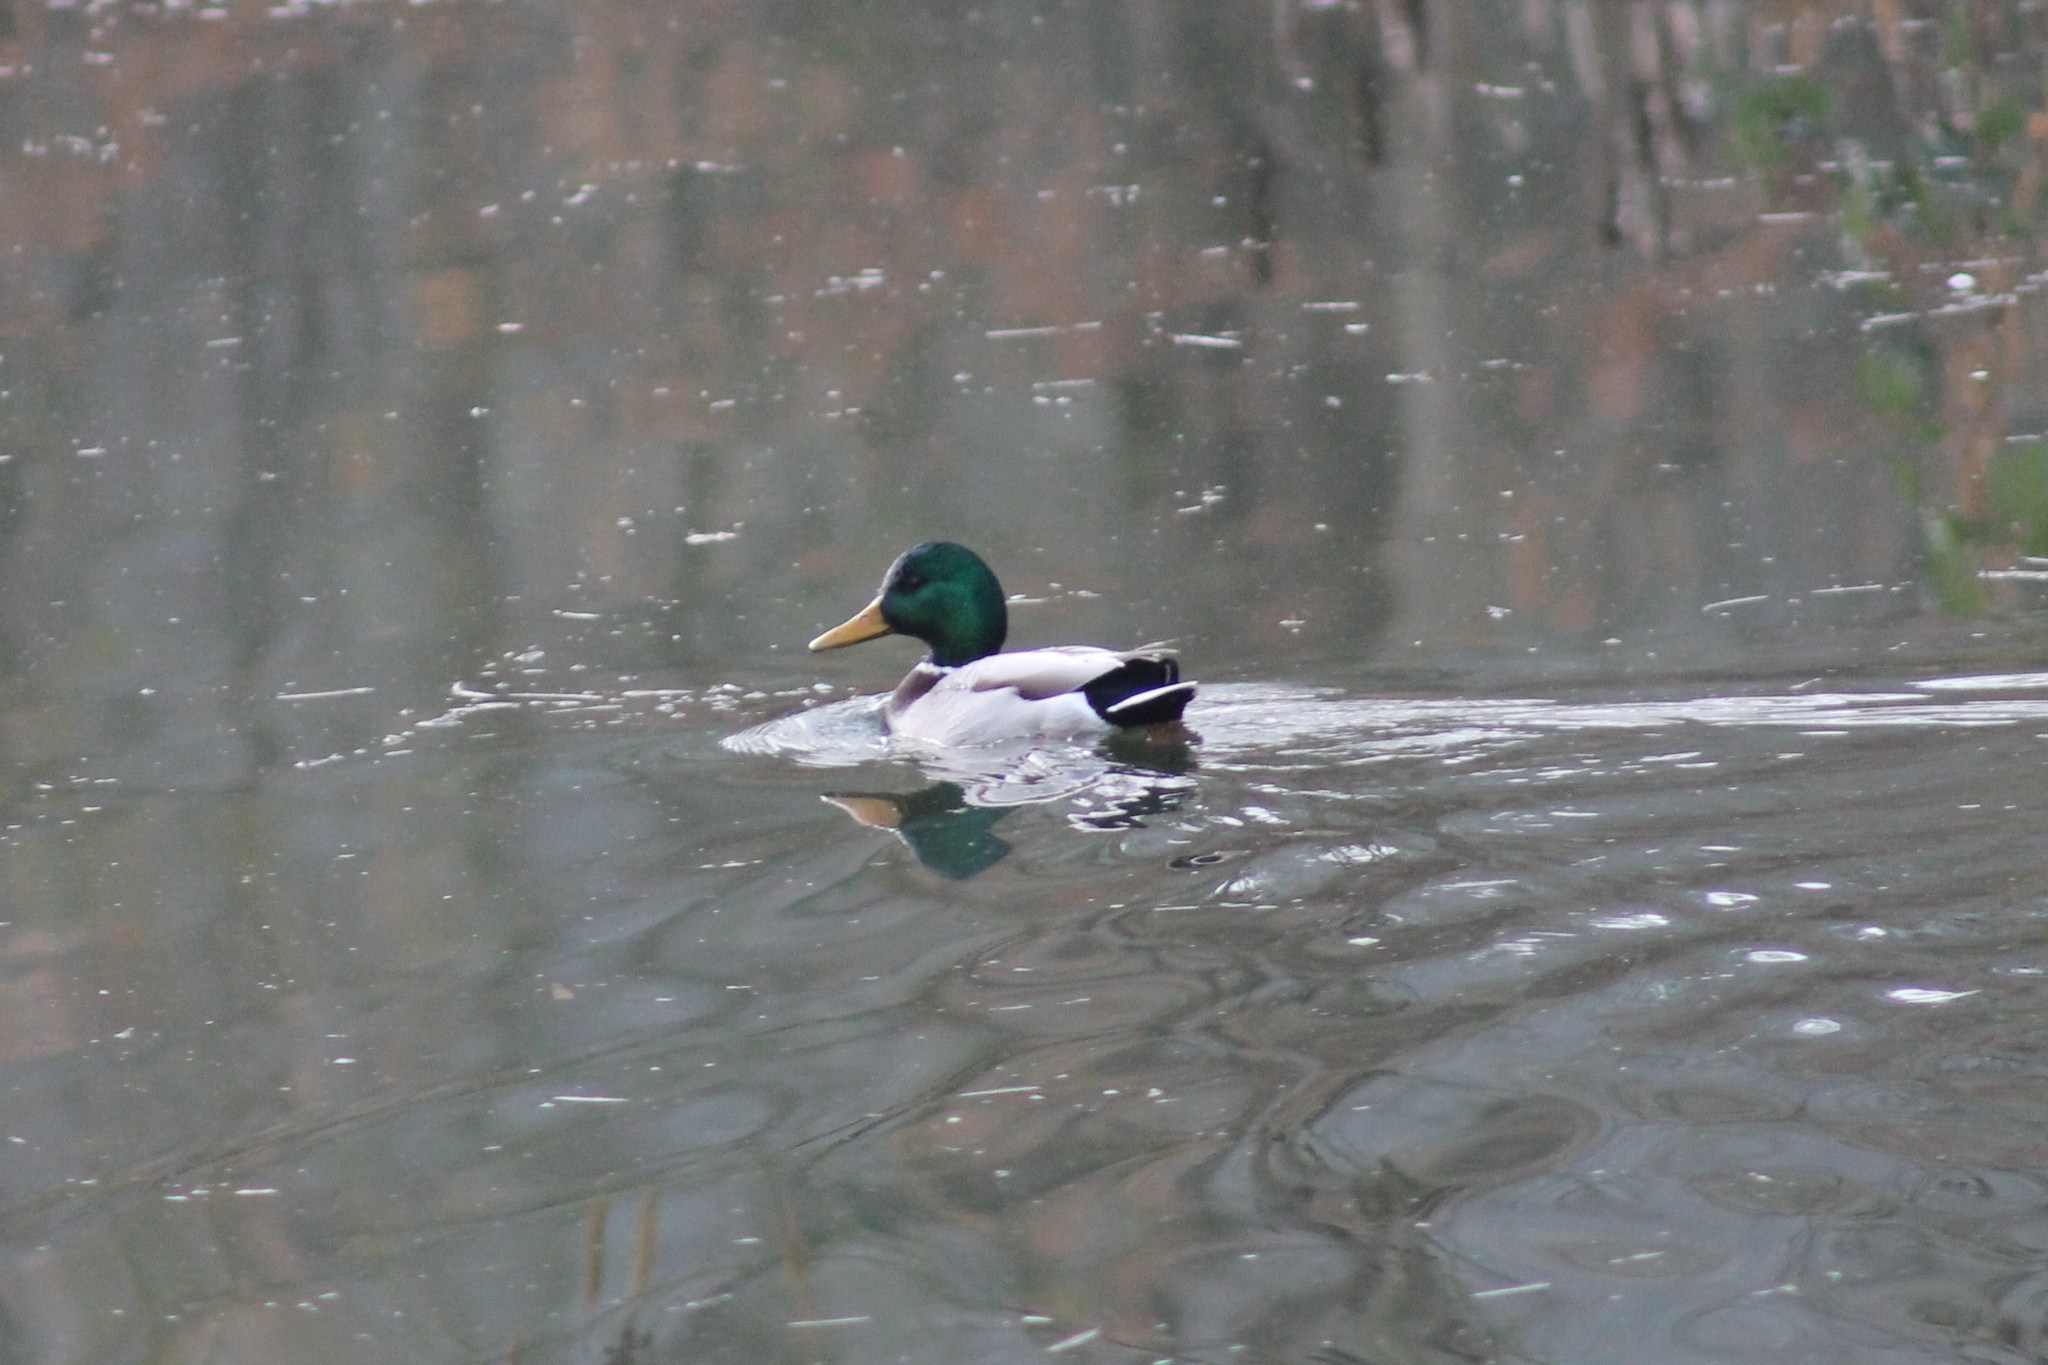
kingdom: Animalia
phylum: Chordata
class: Aves
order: Anseriformes
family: Anatidae
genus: Anas
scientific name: Anas platyrhynchos
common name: Mallard
